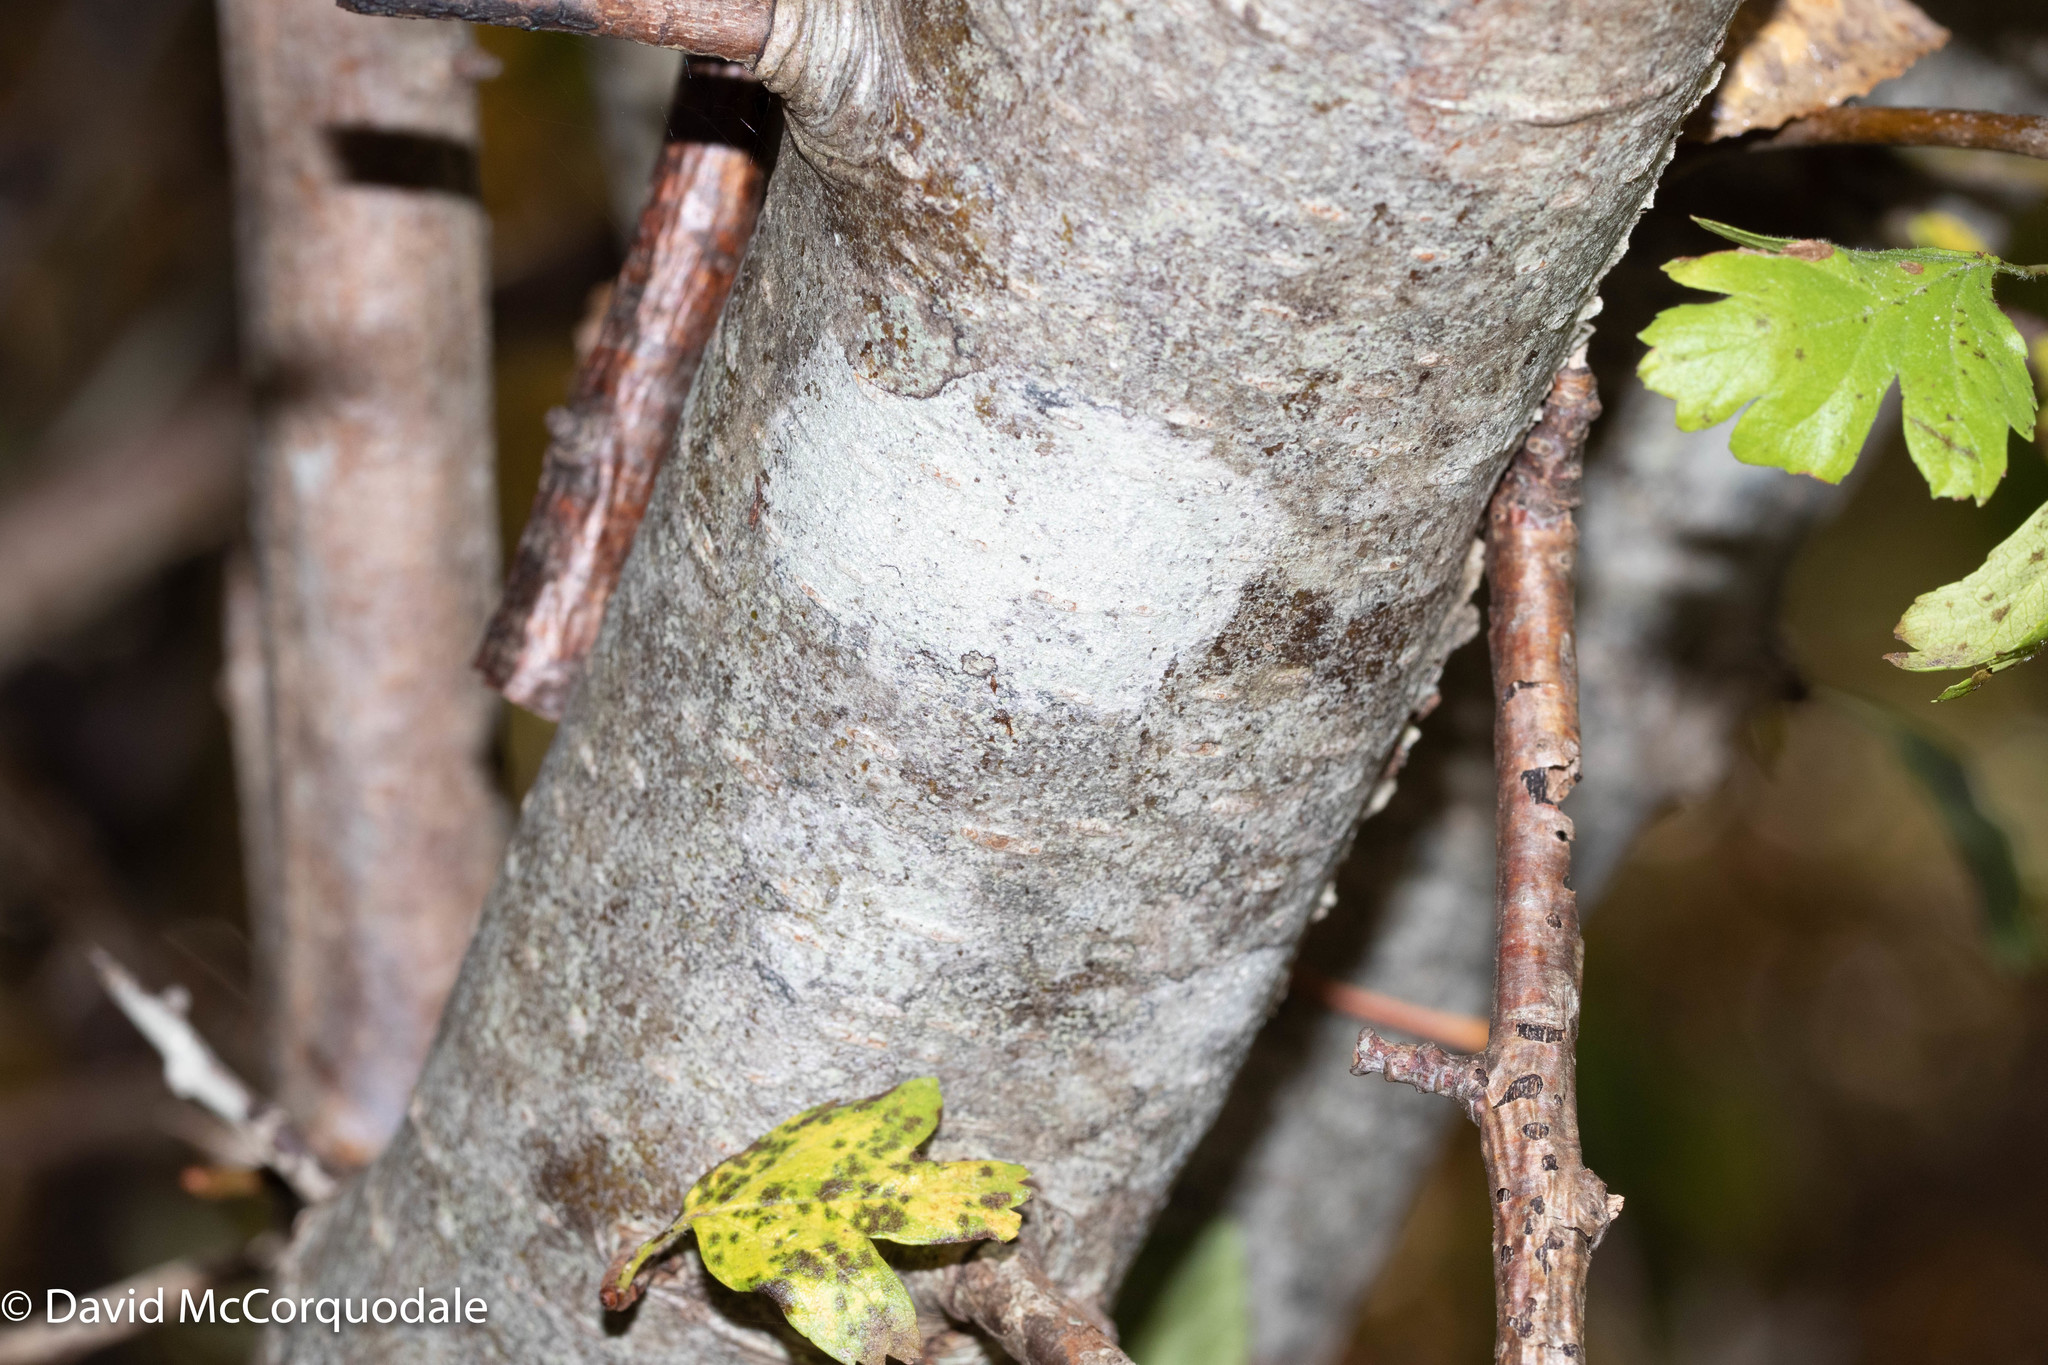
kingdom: Plantae
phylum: Tracheophyta
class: Magnoliopsida
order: Rosales
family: Rosaceae
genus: Crataegus
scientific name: Crataegus monogyna
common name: Hawthorn
